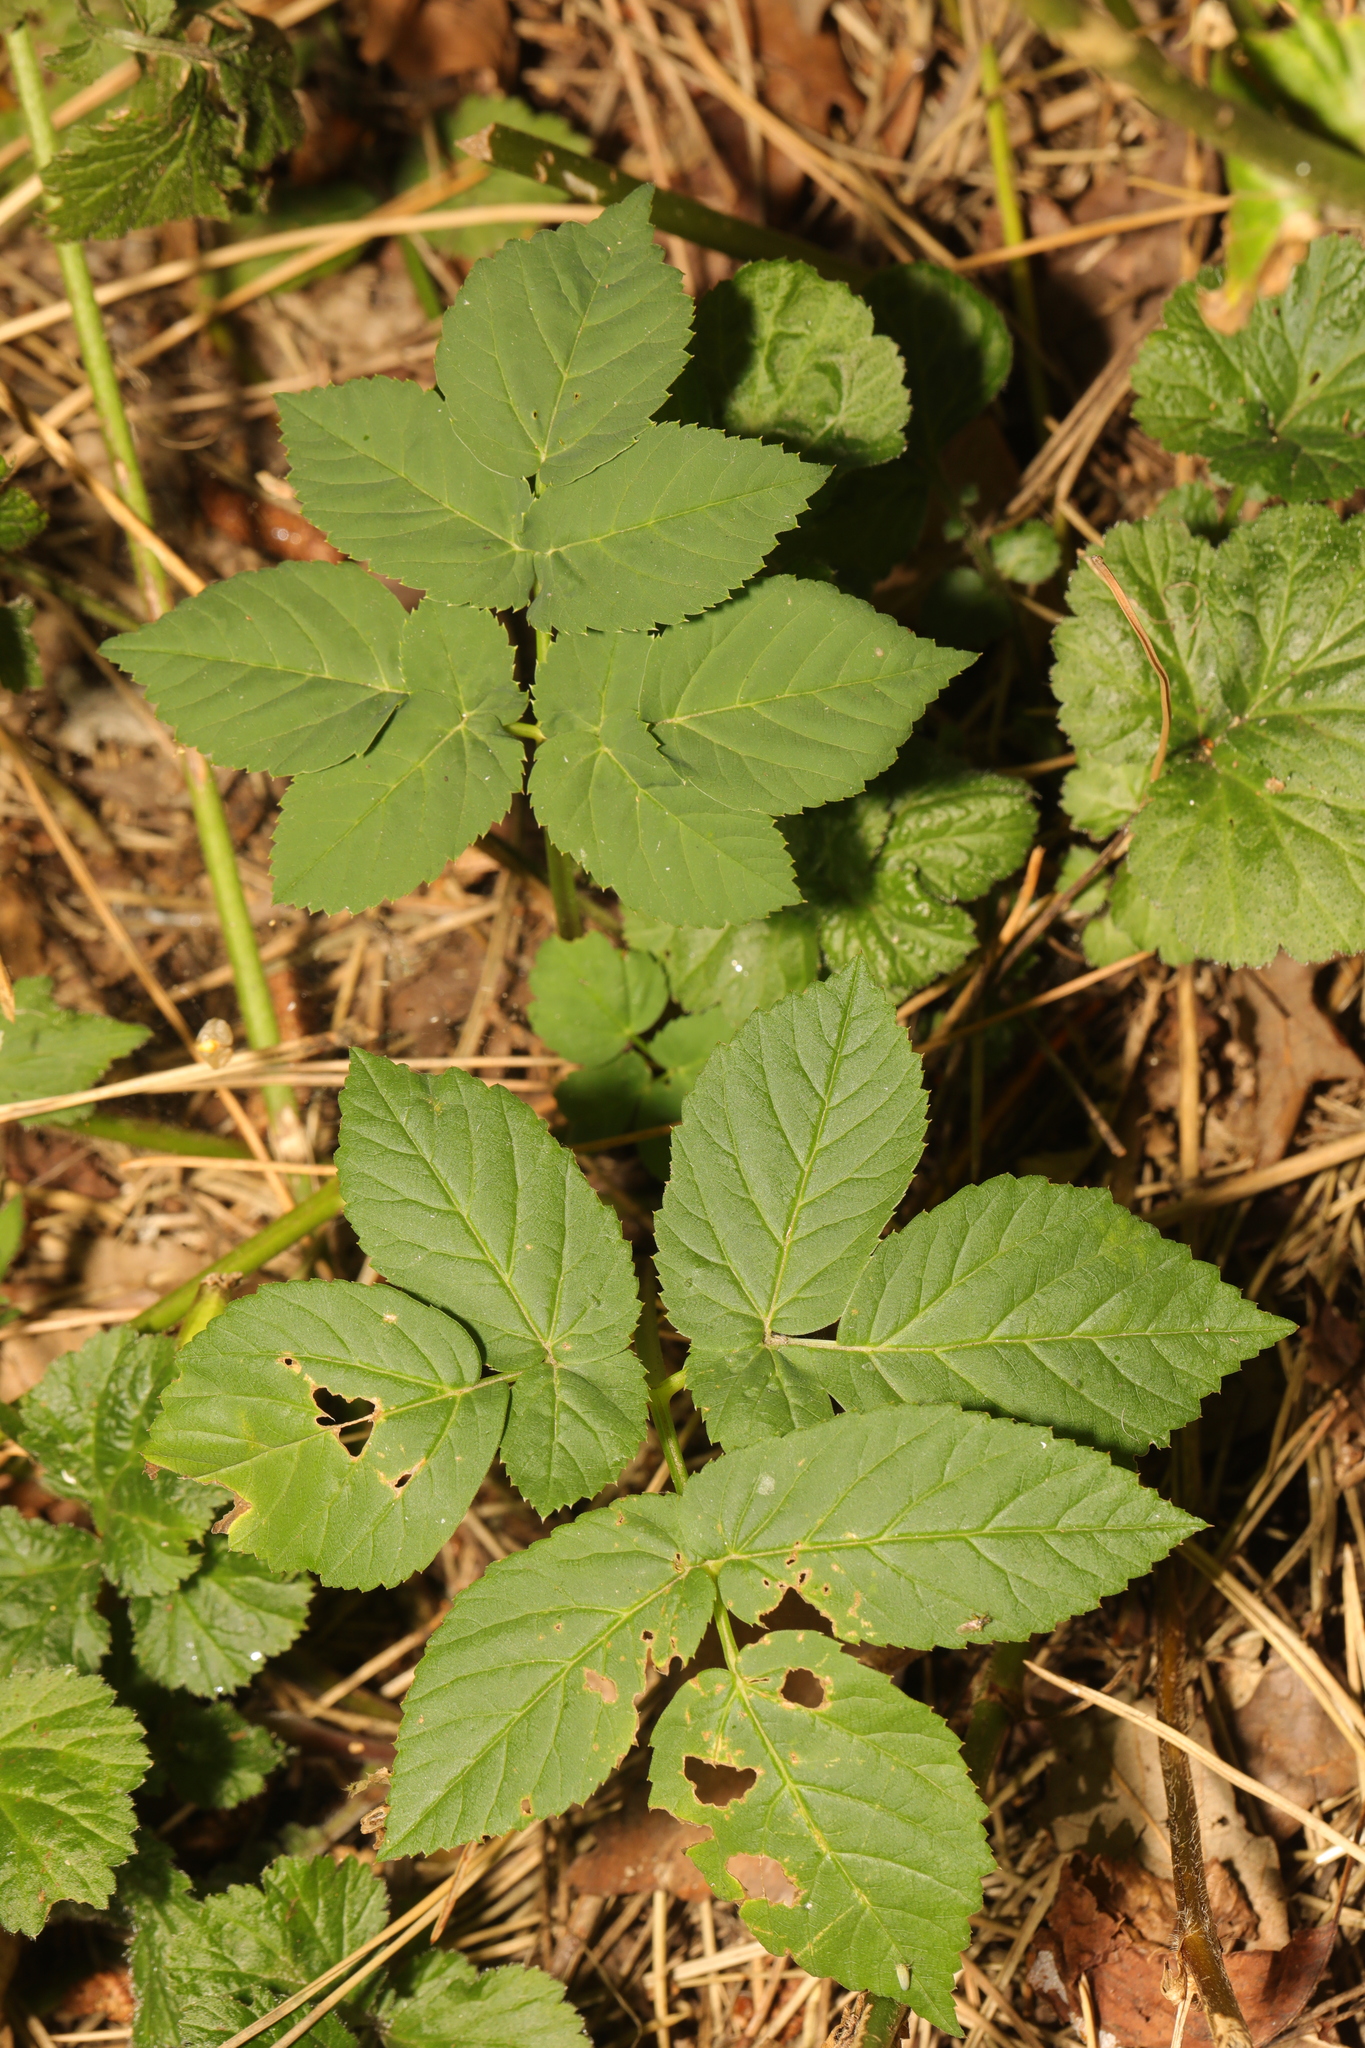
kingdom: Plantae
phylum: Tracheophyta
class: Magnoliopsida
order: Apiales
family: Apiaceae
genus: Aegopodium
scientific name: Aegopodium podagraria
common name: Ground-elder
